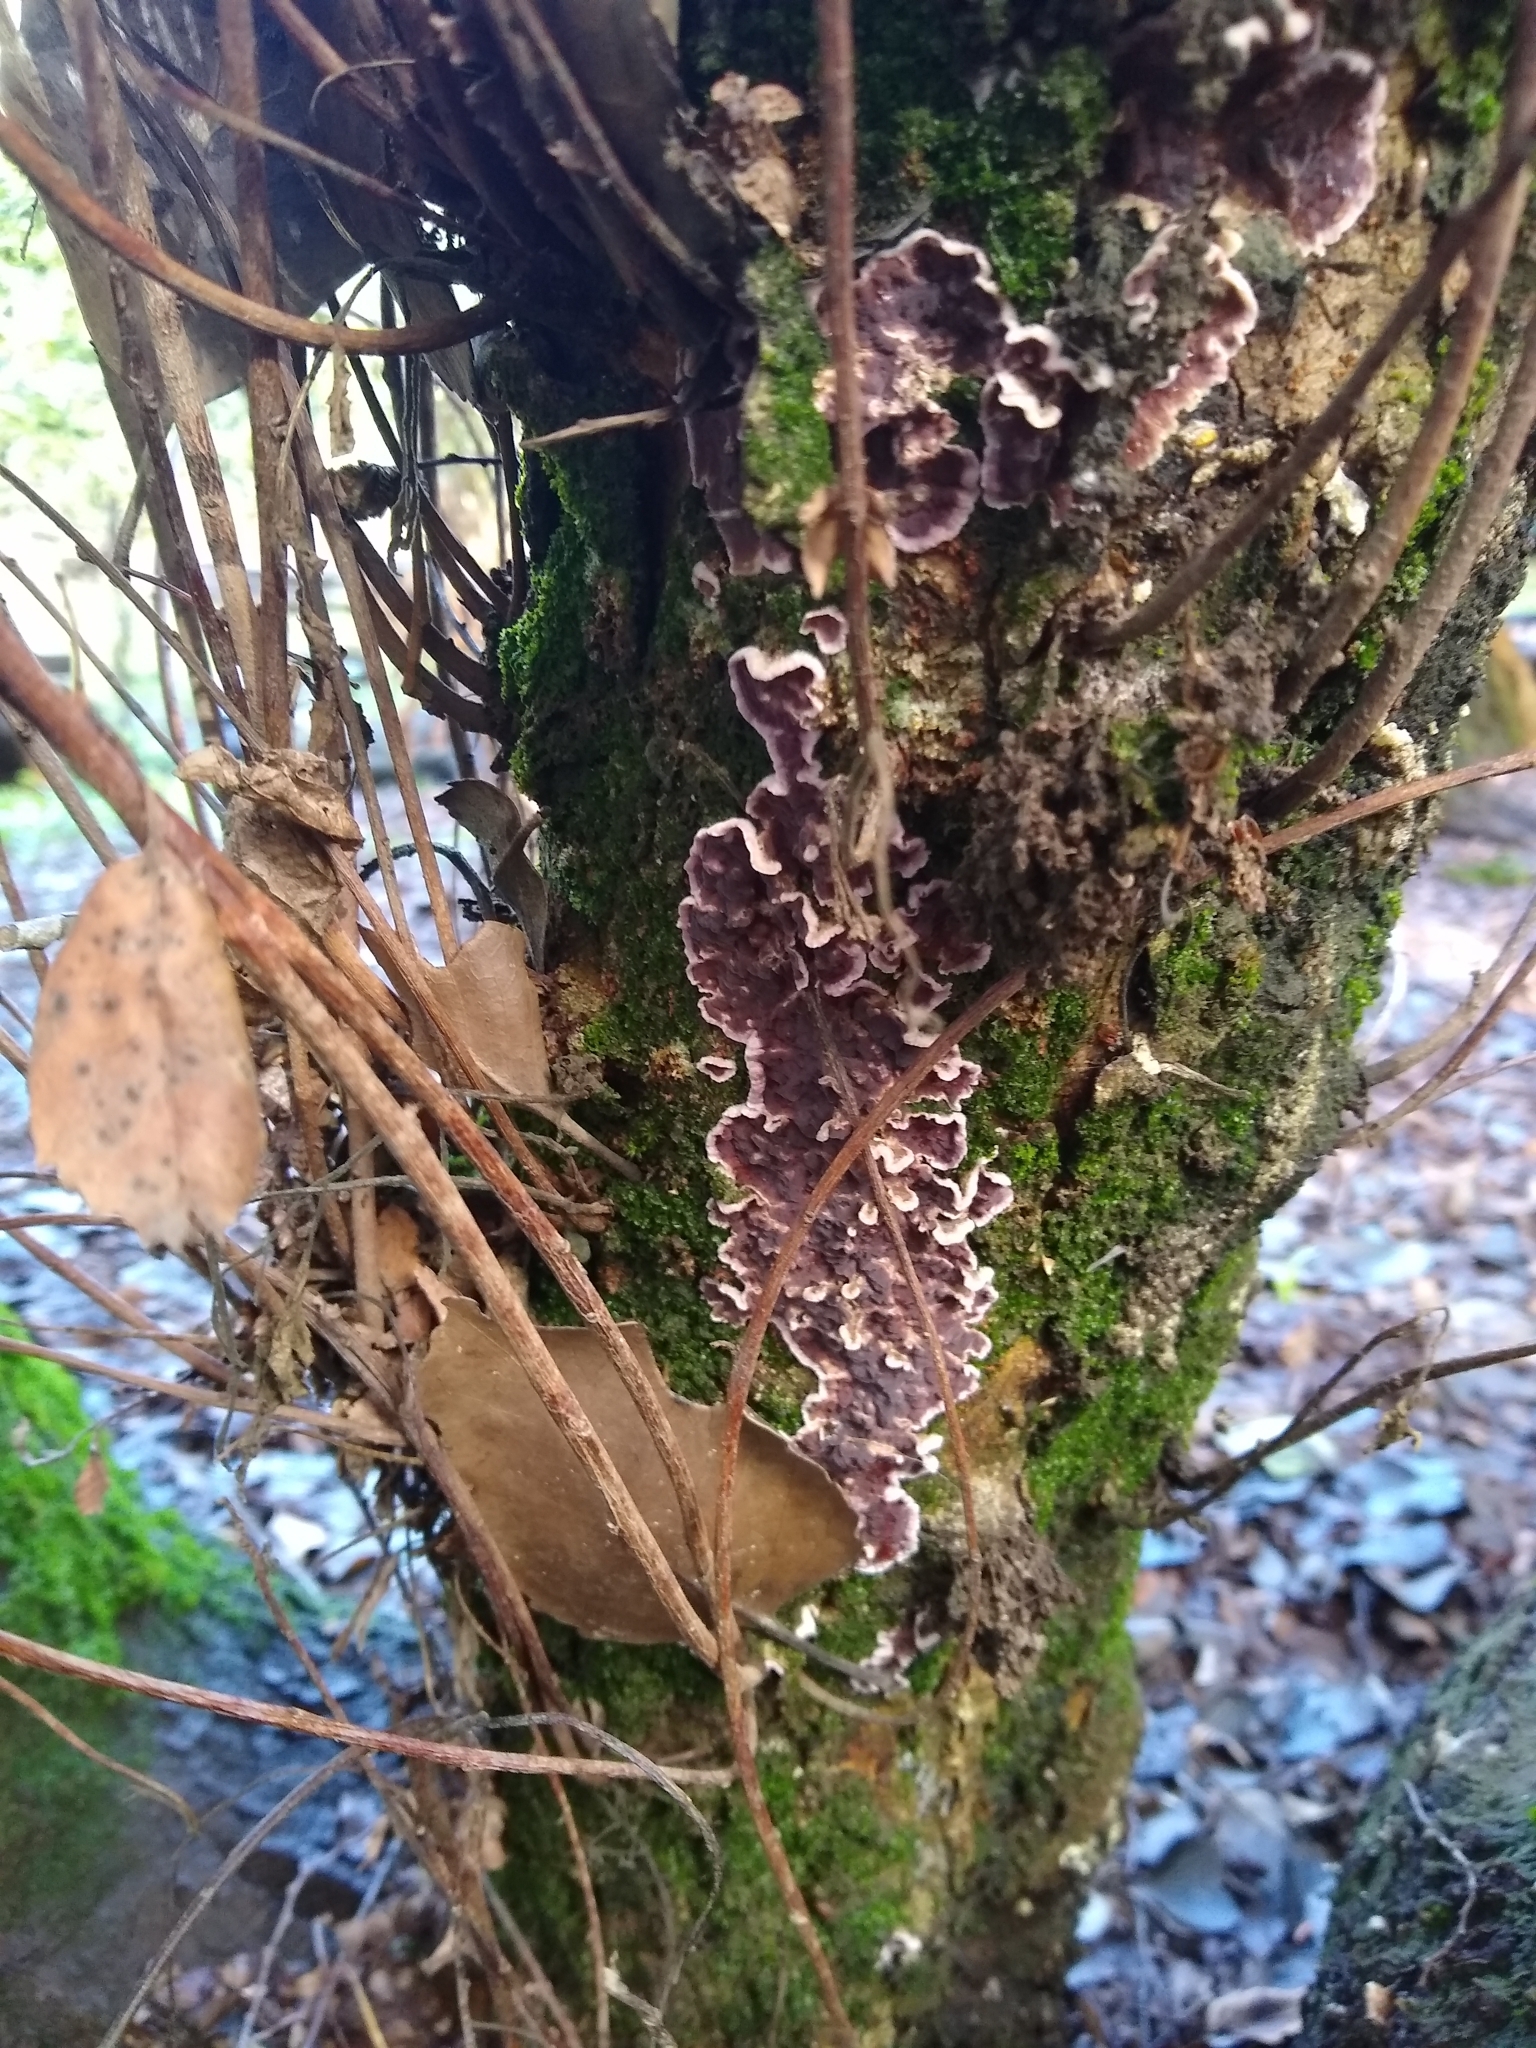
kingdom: Fungi
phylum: Basidiomycota
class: Agaricomycetes
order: Agaricales
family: Cyphellaceae
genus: Chondrostereum
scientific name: Chondrostereum purpureum
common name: Silver leaf disease
